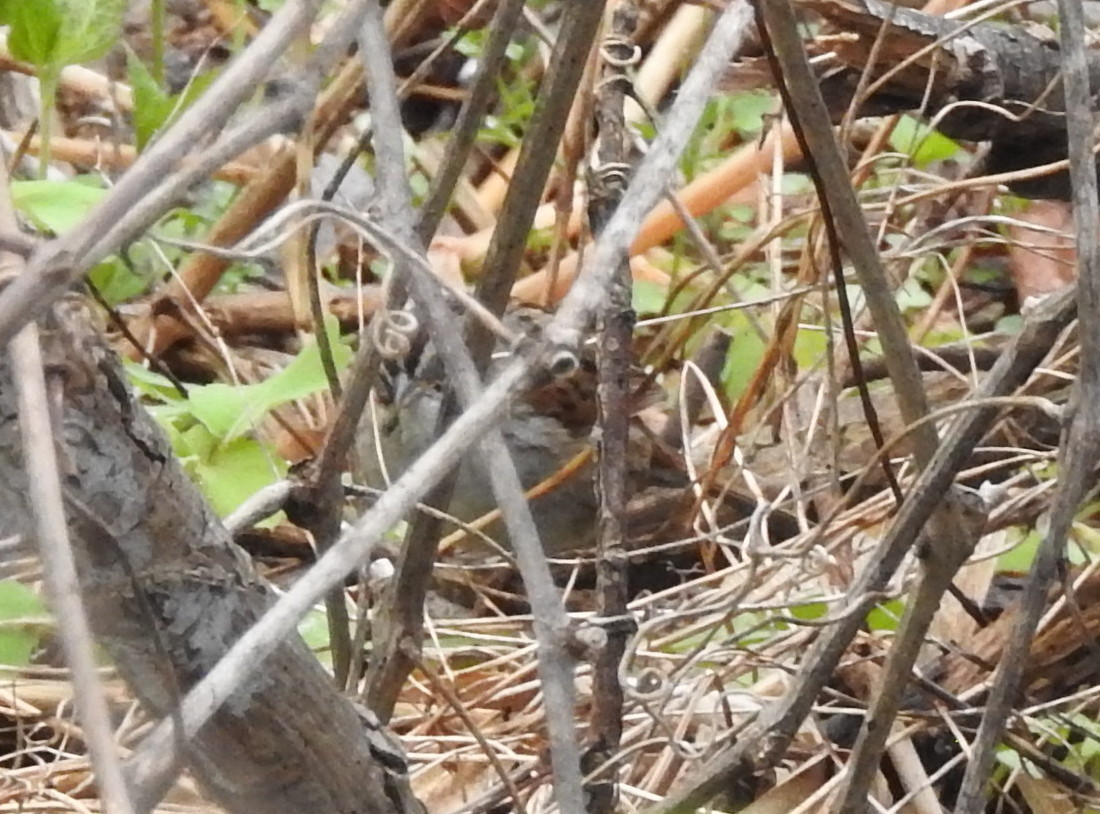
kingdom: Animalia
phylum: Chordata
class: Aves
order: Passeriformes
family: Passerellidae
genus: Melospiza
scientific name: Melospiza georgiana
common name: Swamp sparrow
